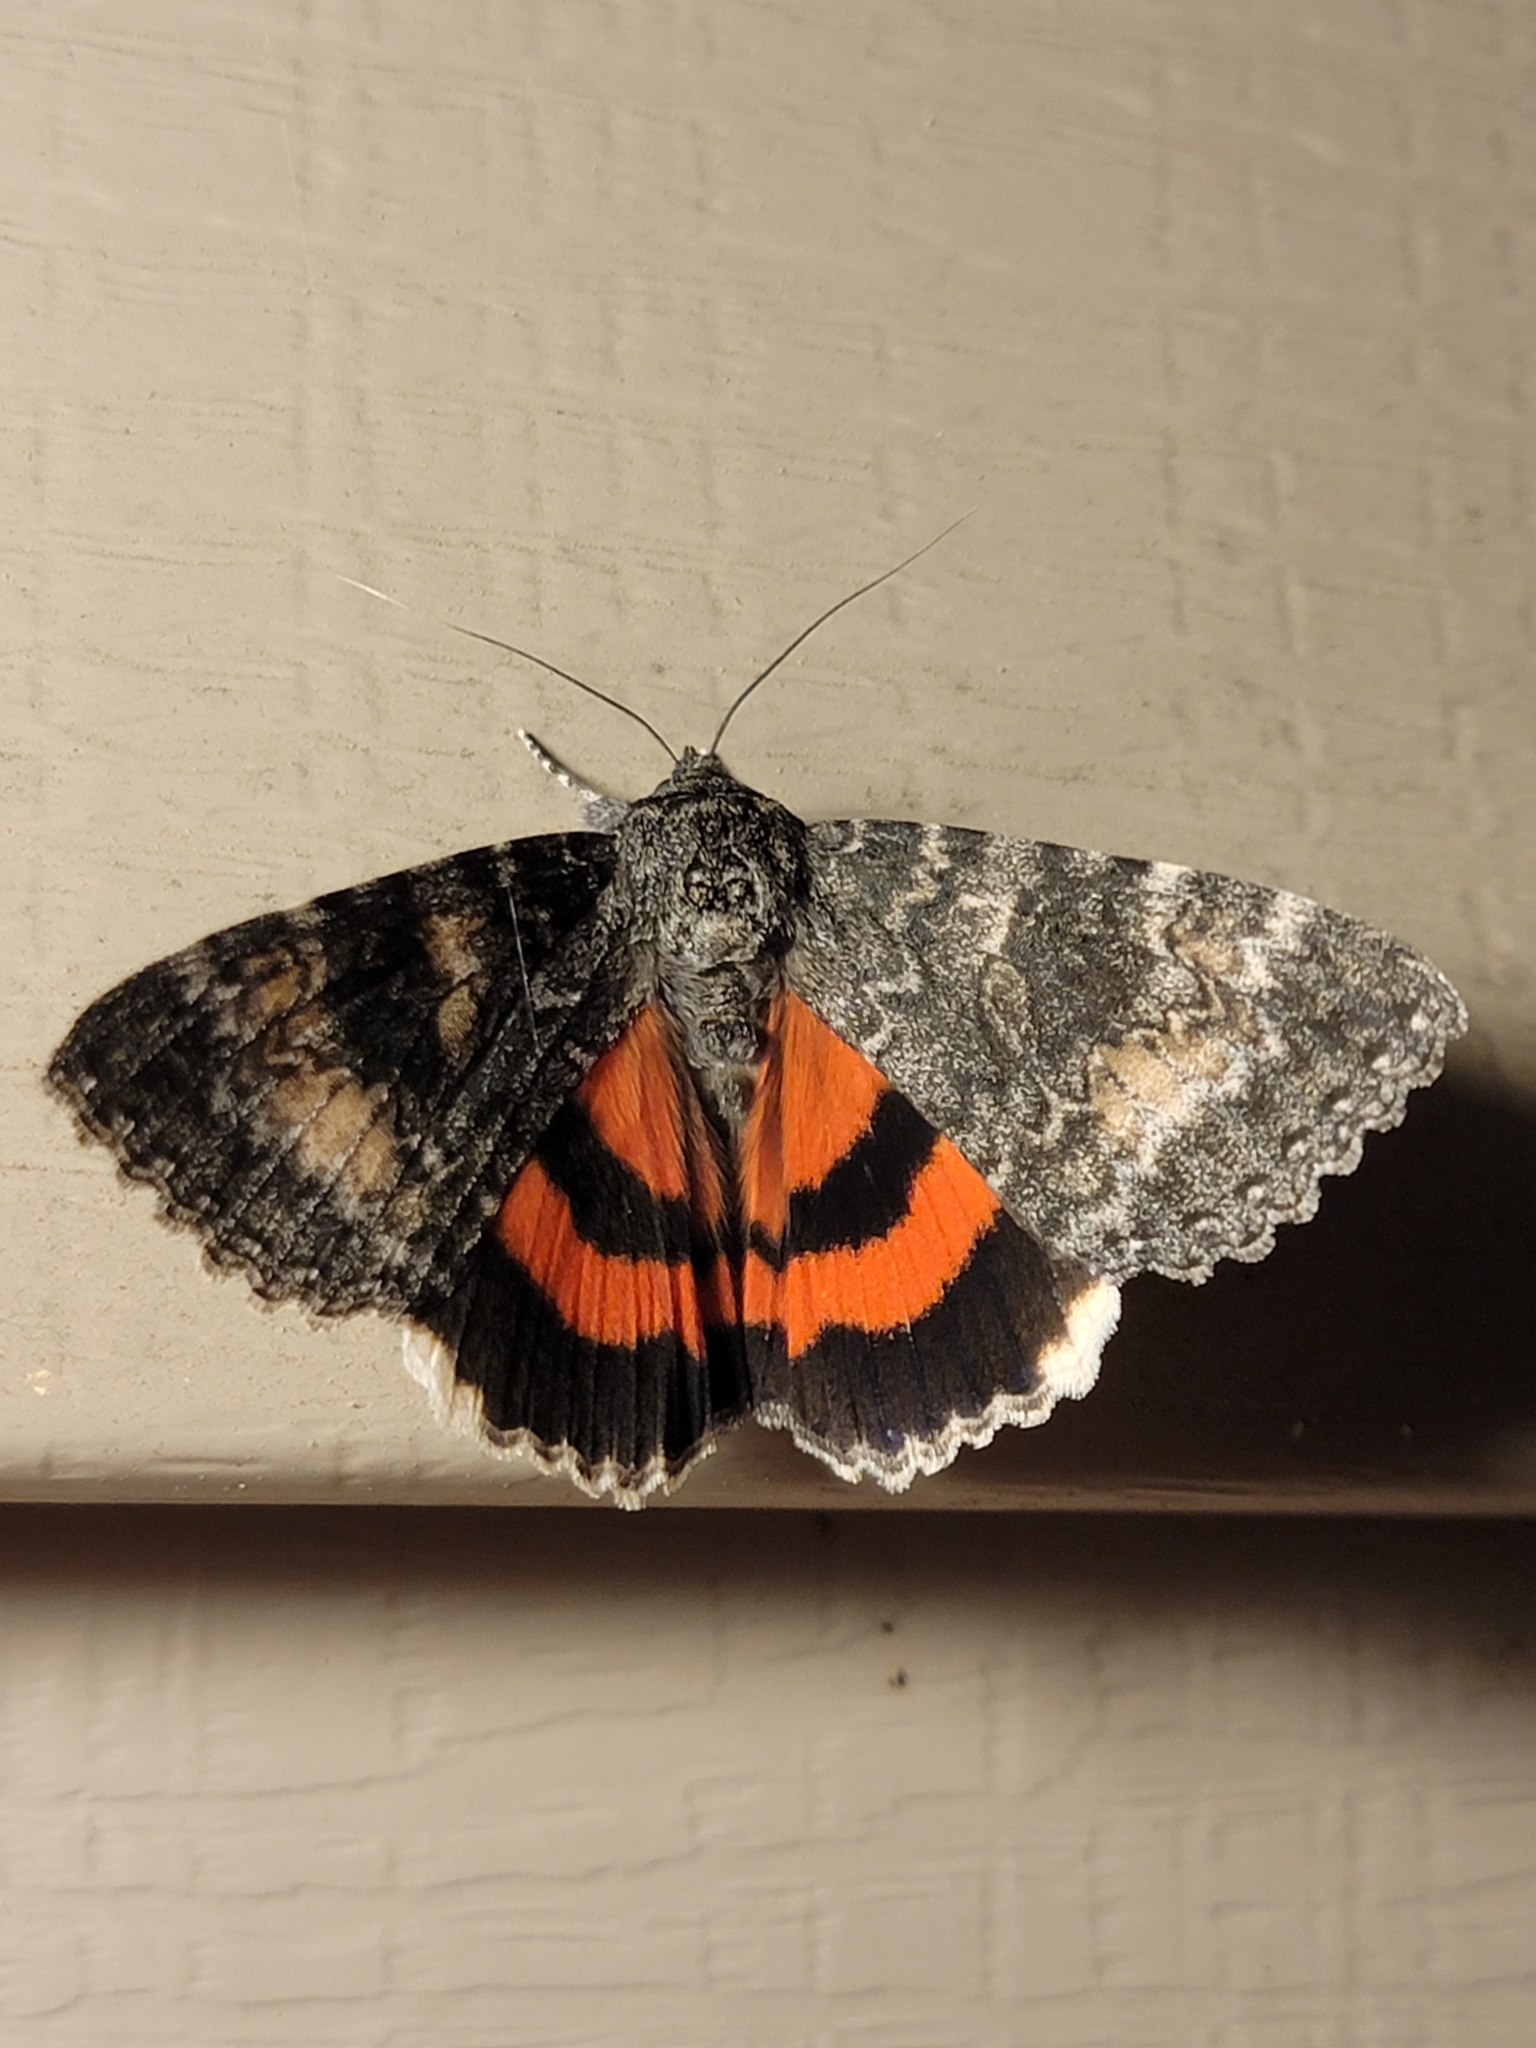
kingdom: Animalia
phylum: Arthropoda
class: Insecta
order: Lepidoptera
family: Erebidae
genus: Catocala
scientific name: Catocala briseis
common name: Briseis underwing
